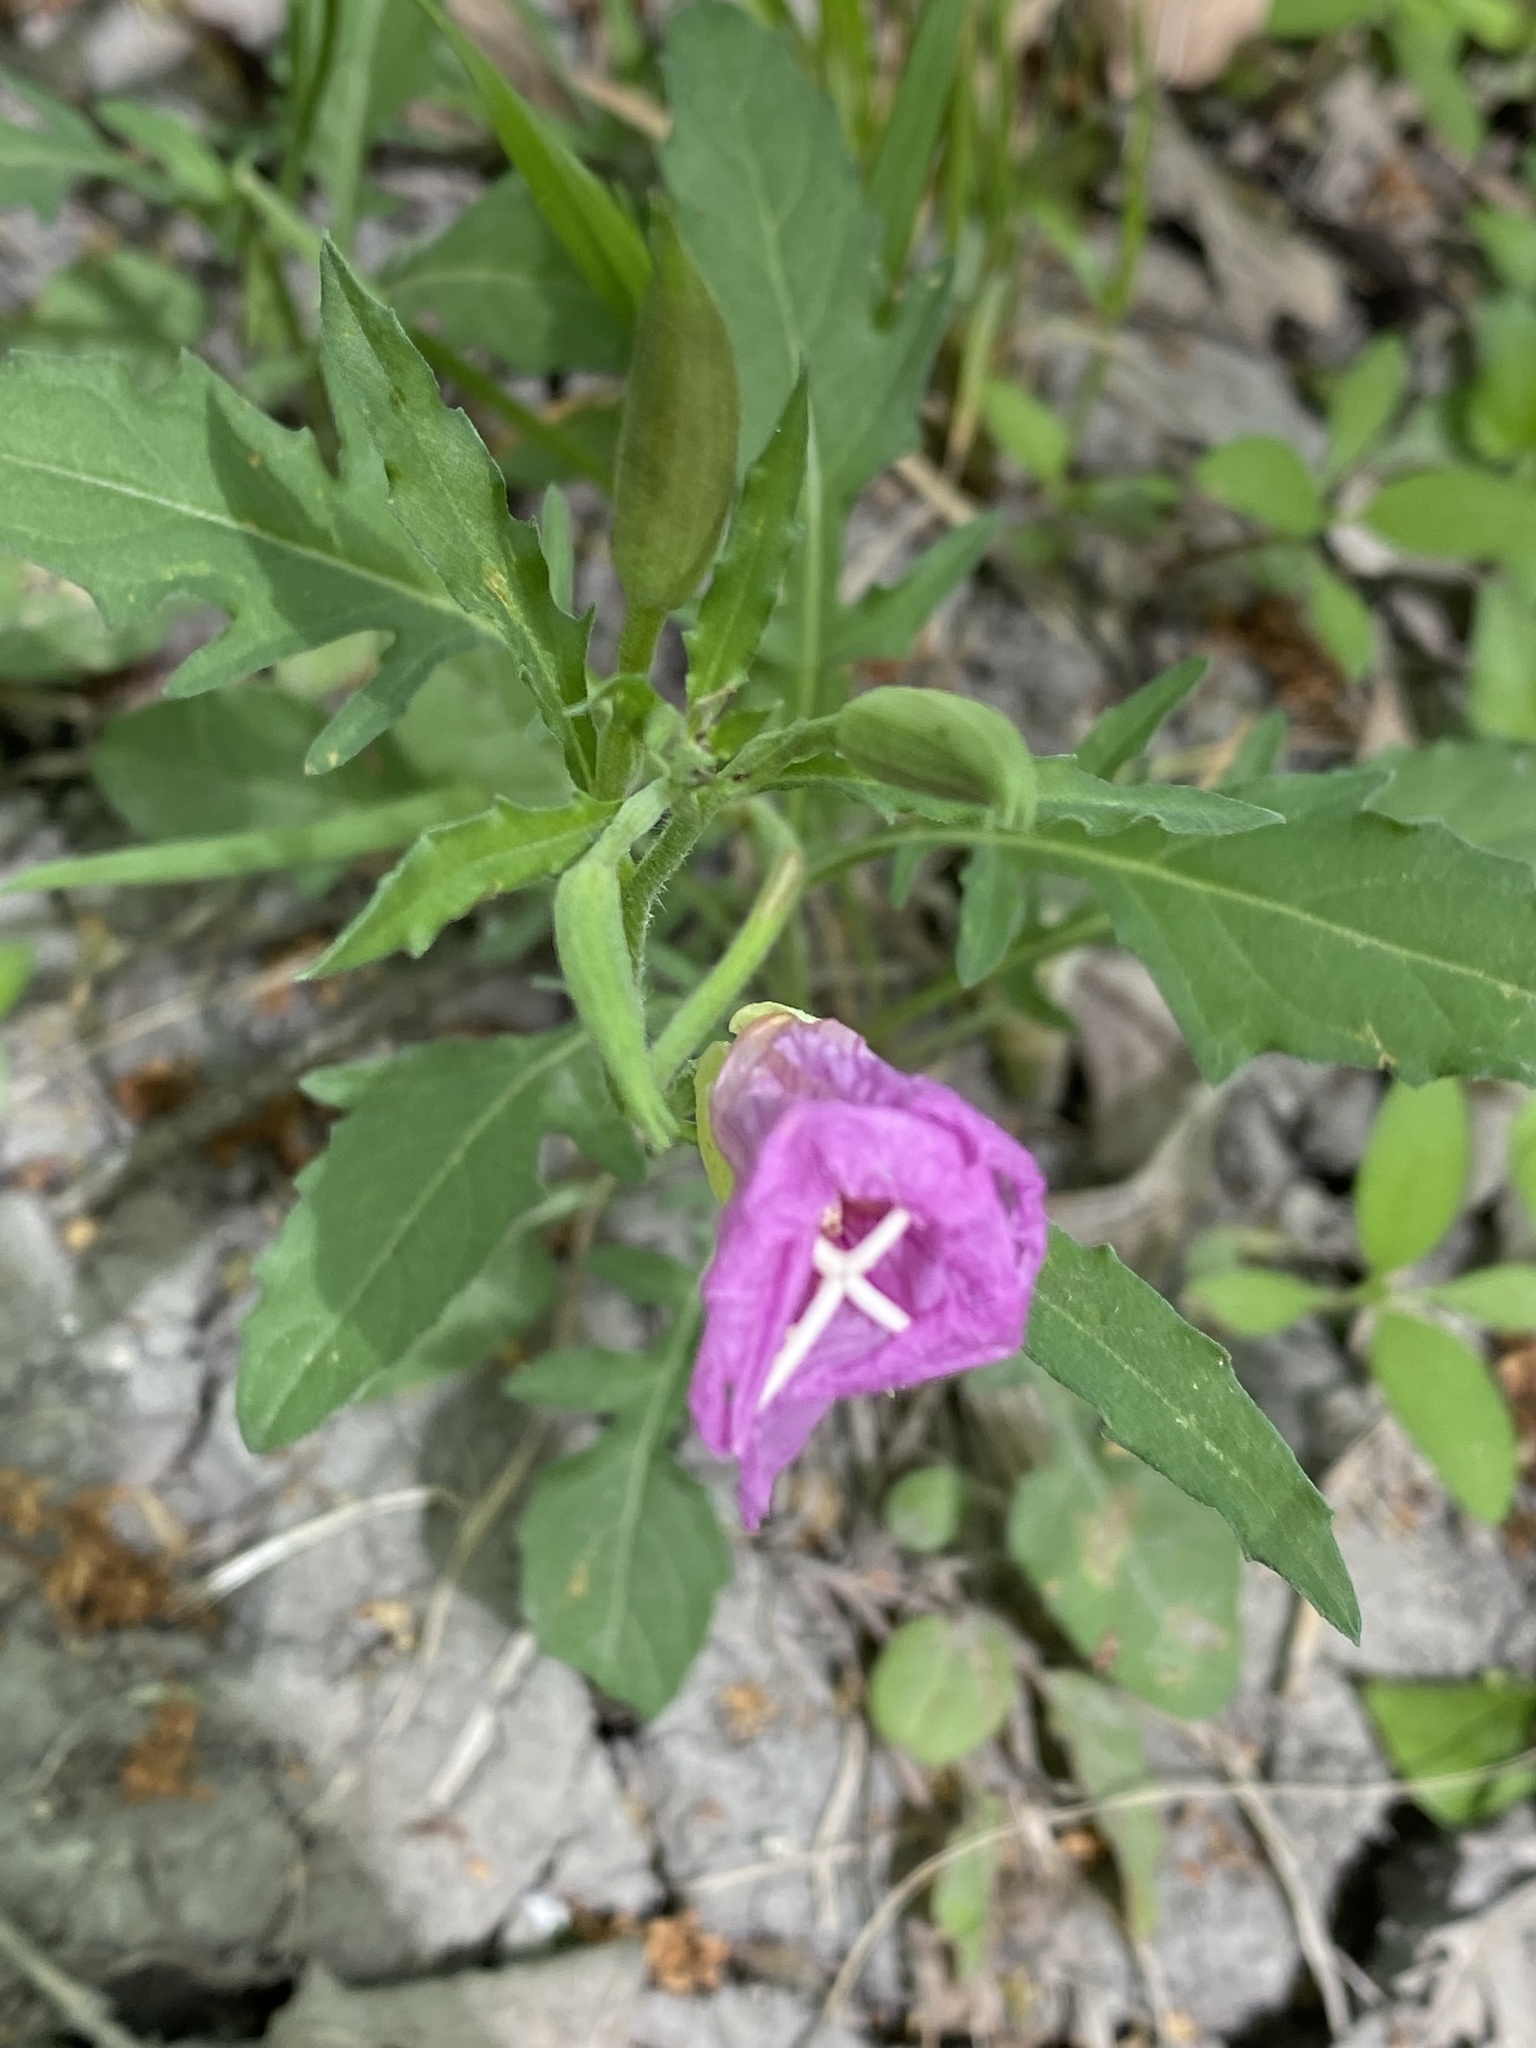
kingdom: Plantae
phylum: Tracheophyta
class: Magnoliopsida
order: Myrtales
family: Onagraceae
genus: Oenothera
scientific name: Oenothera speciosa
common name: White evening-primrose
